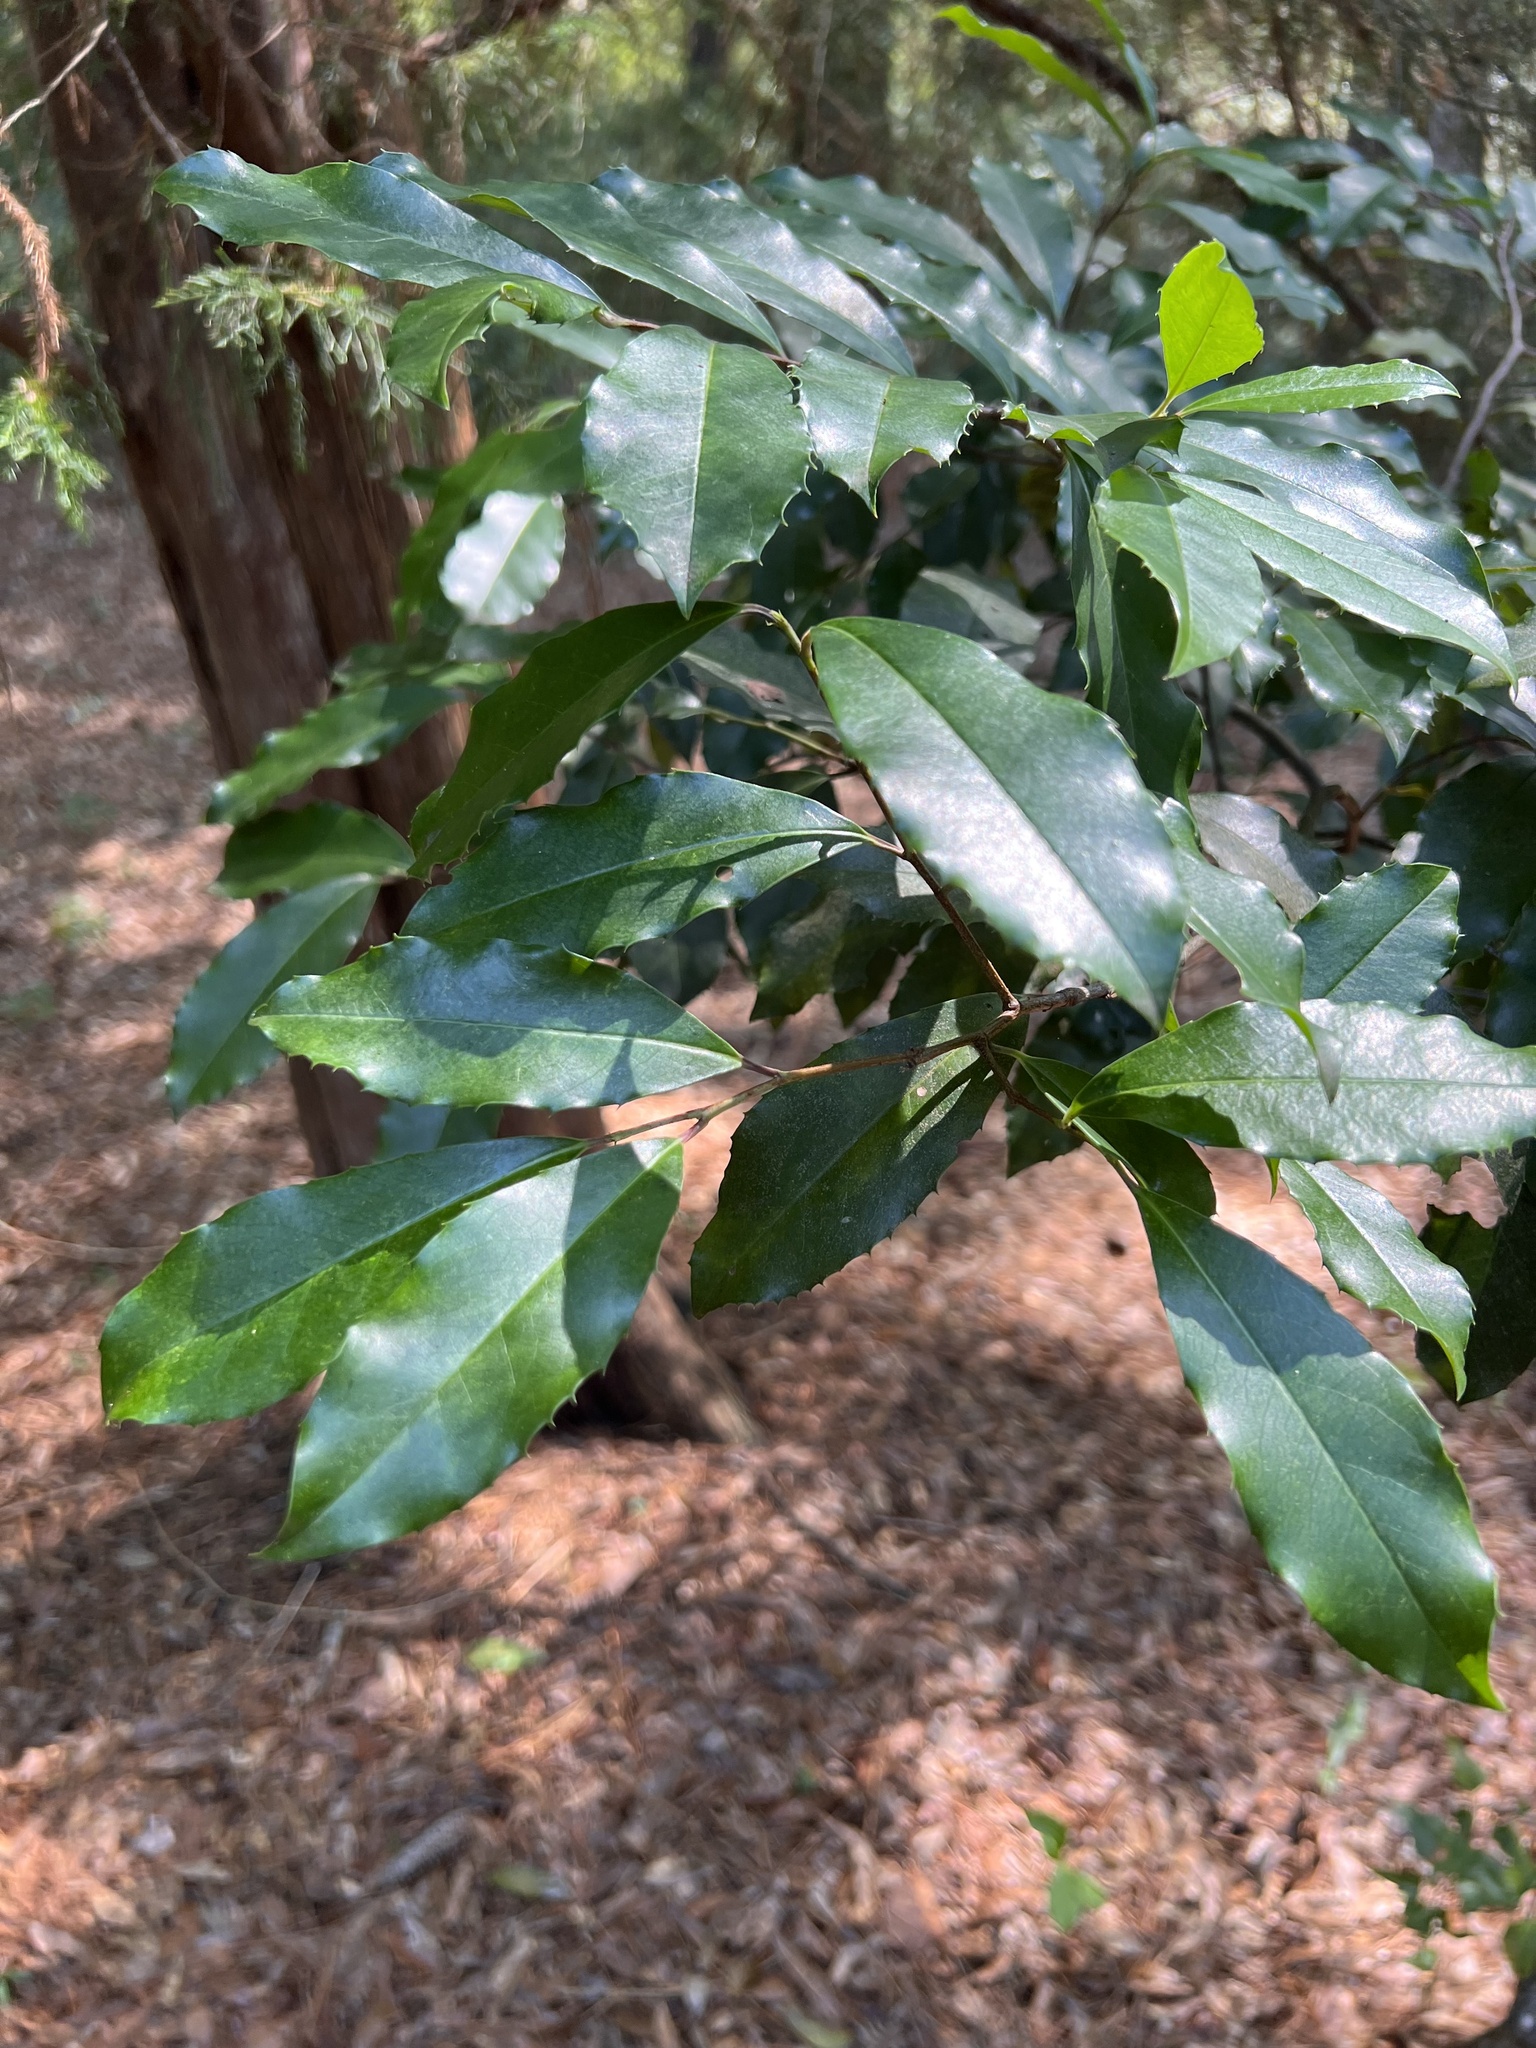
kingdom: Plantae
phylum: Tracheophyta
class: Magnoliopsida
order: Rosales
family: Rosaceae
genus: Prunus
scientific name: Prunus caroliniana
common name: Carolina laurel cherry
